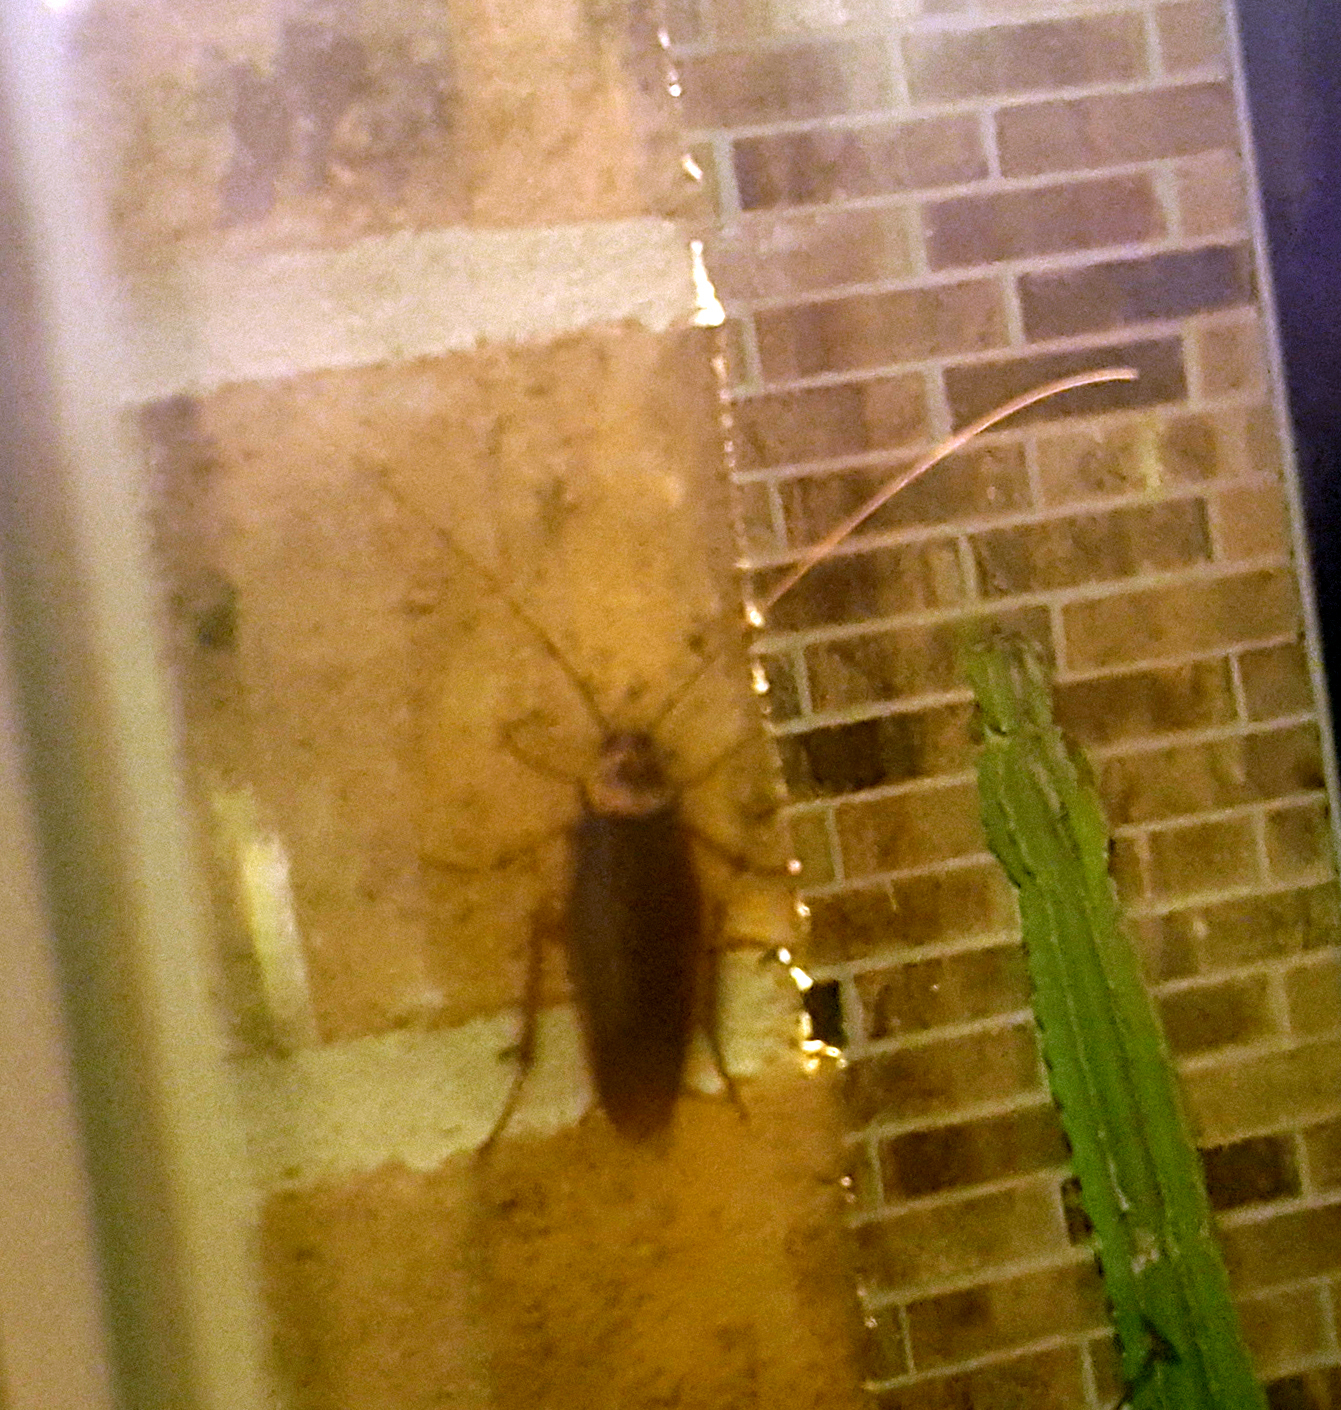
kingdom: Animalia
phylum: Arthropoda
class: Insecta
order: Blattodea
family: Blattidae
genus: Periplaneta
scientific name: Periplaneta americana
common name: American cockroach
